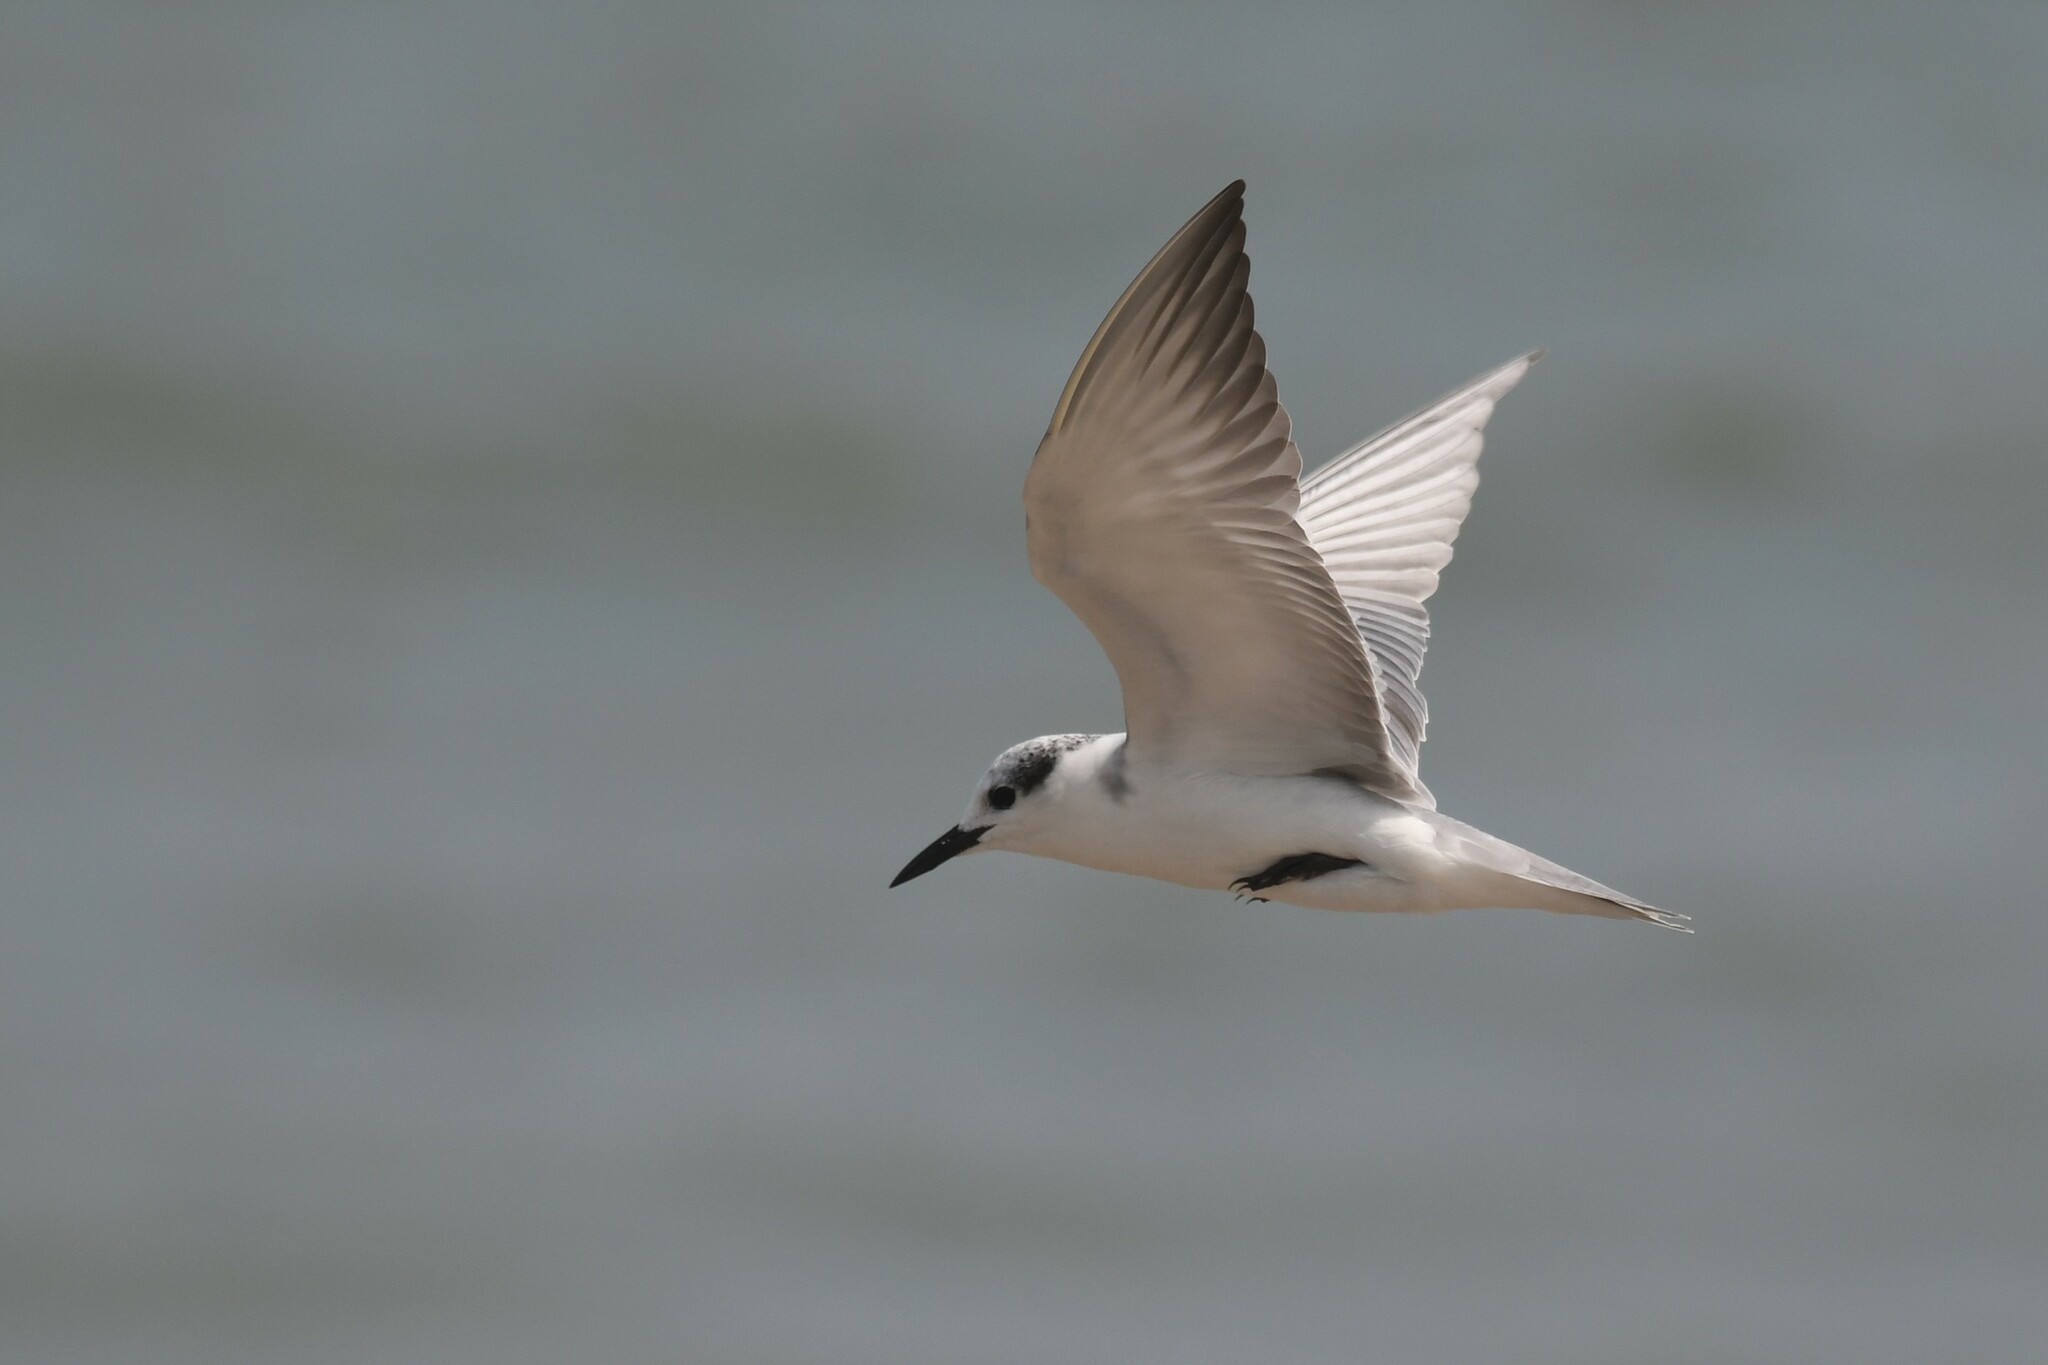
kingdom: Animalia
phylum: Chordata
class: Aves
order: Charadriiformes
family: Laridae
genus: Chlidonias
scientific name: Chlidonias hybrida
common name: Whiskered tern
